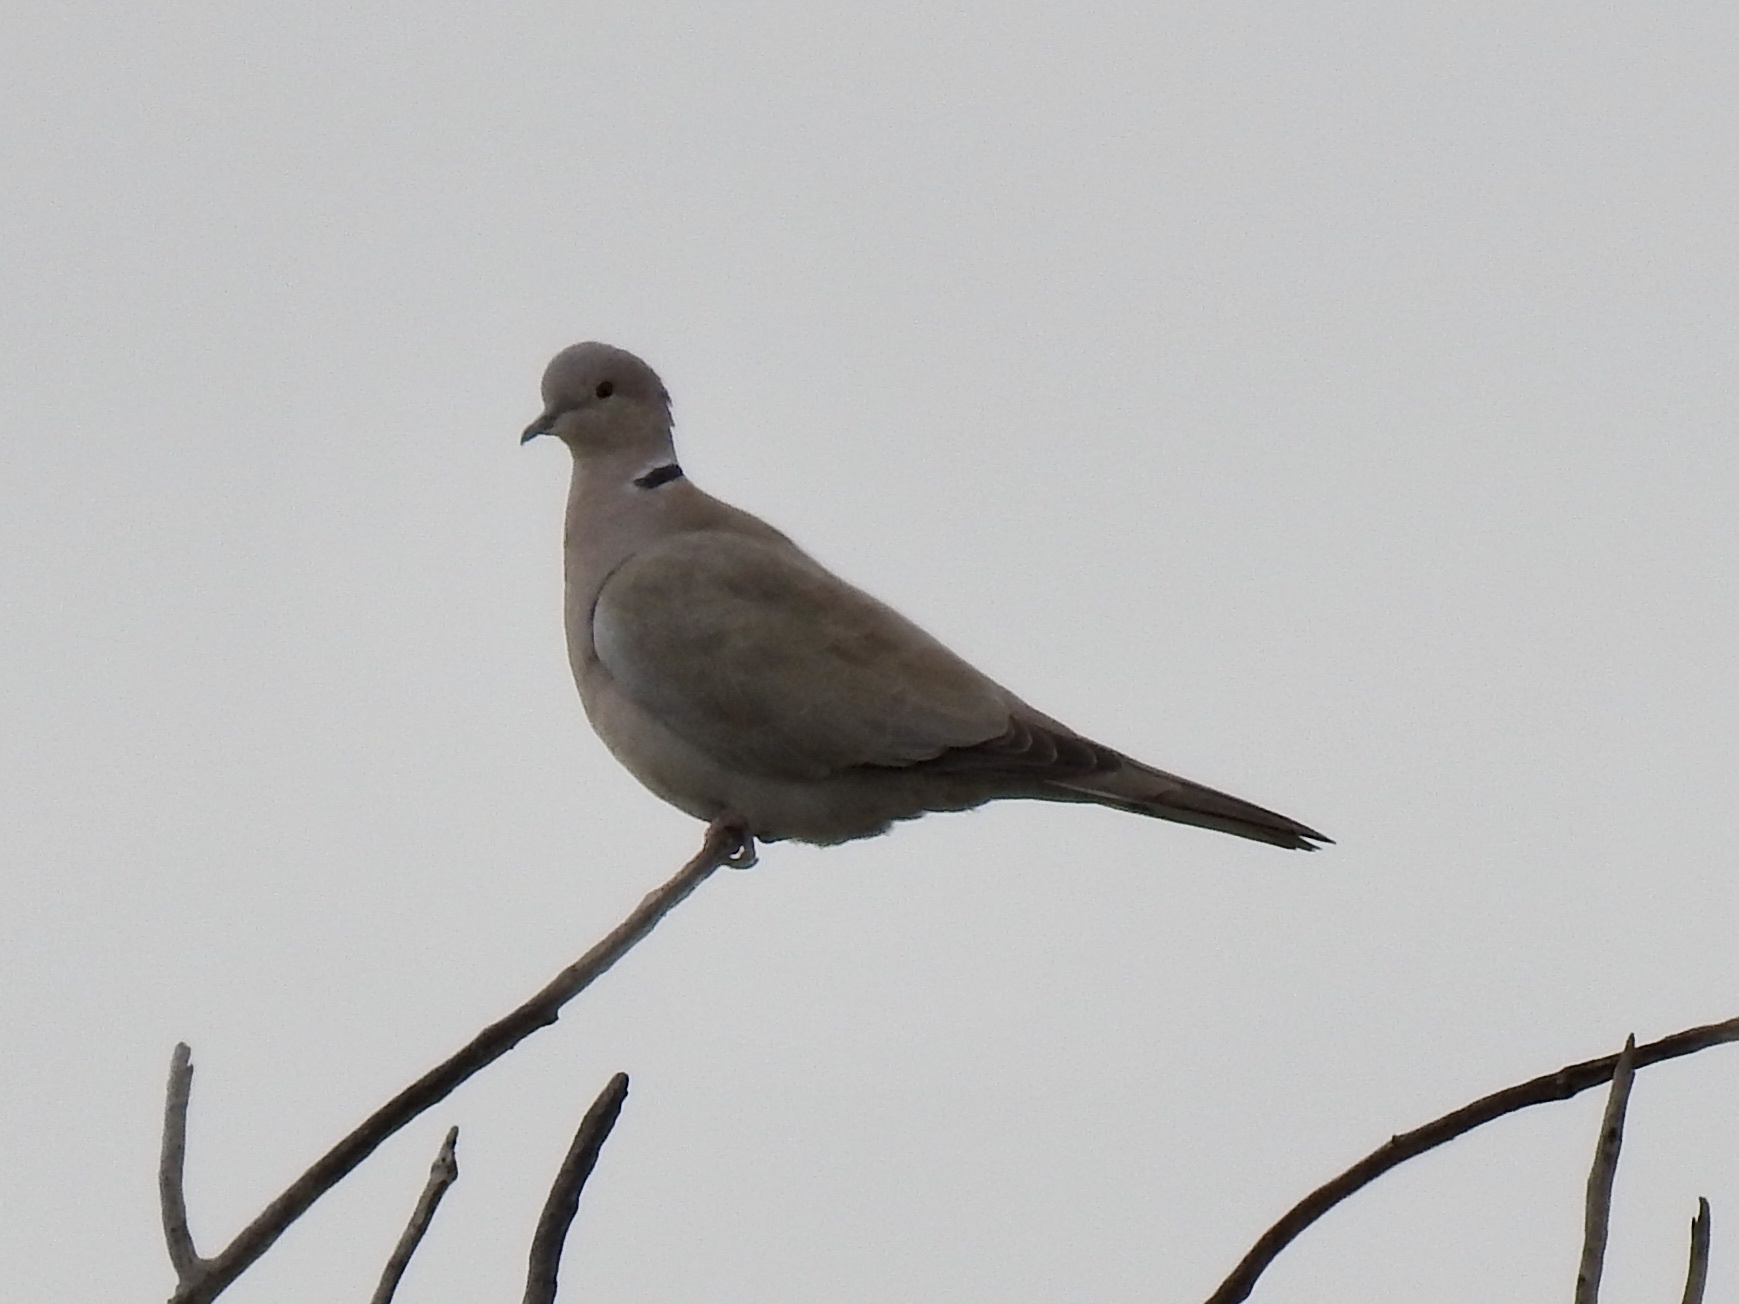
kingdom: Animalia
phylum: Chordata
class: Aves
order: Columbiformes
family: Columbidae
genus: Streptopelia
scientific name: Streptopelia decaocto
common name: Eurasian collared dove
